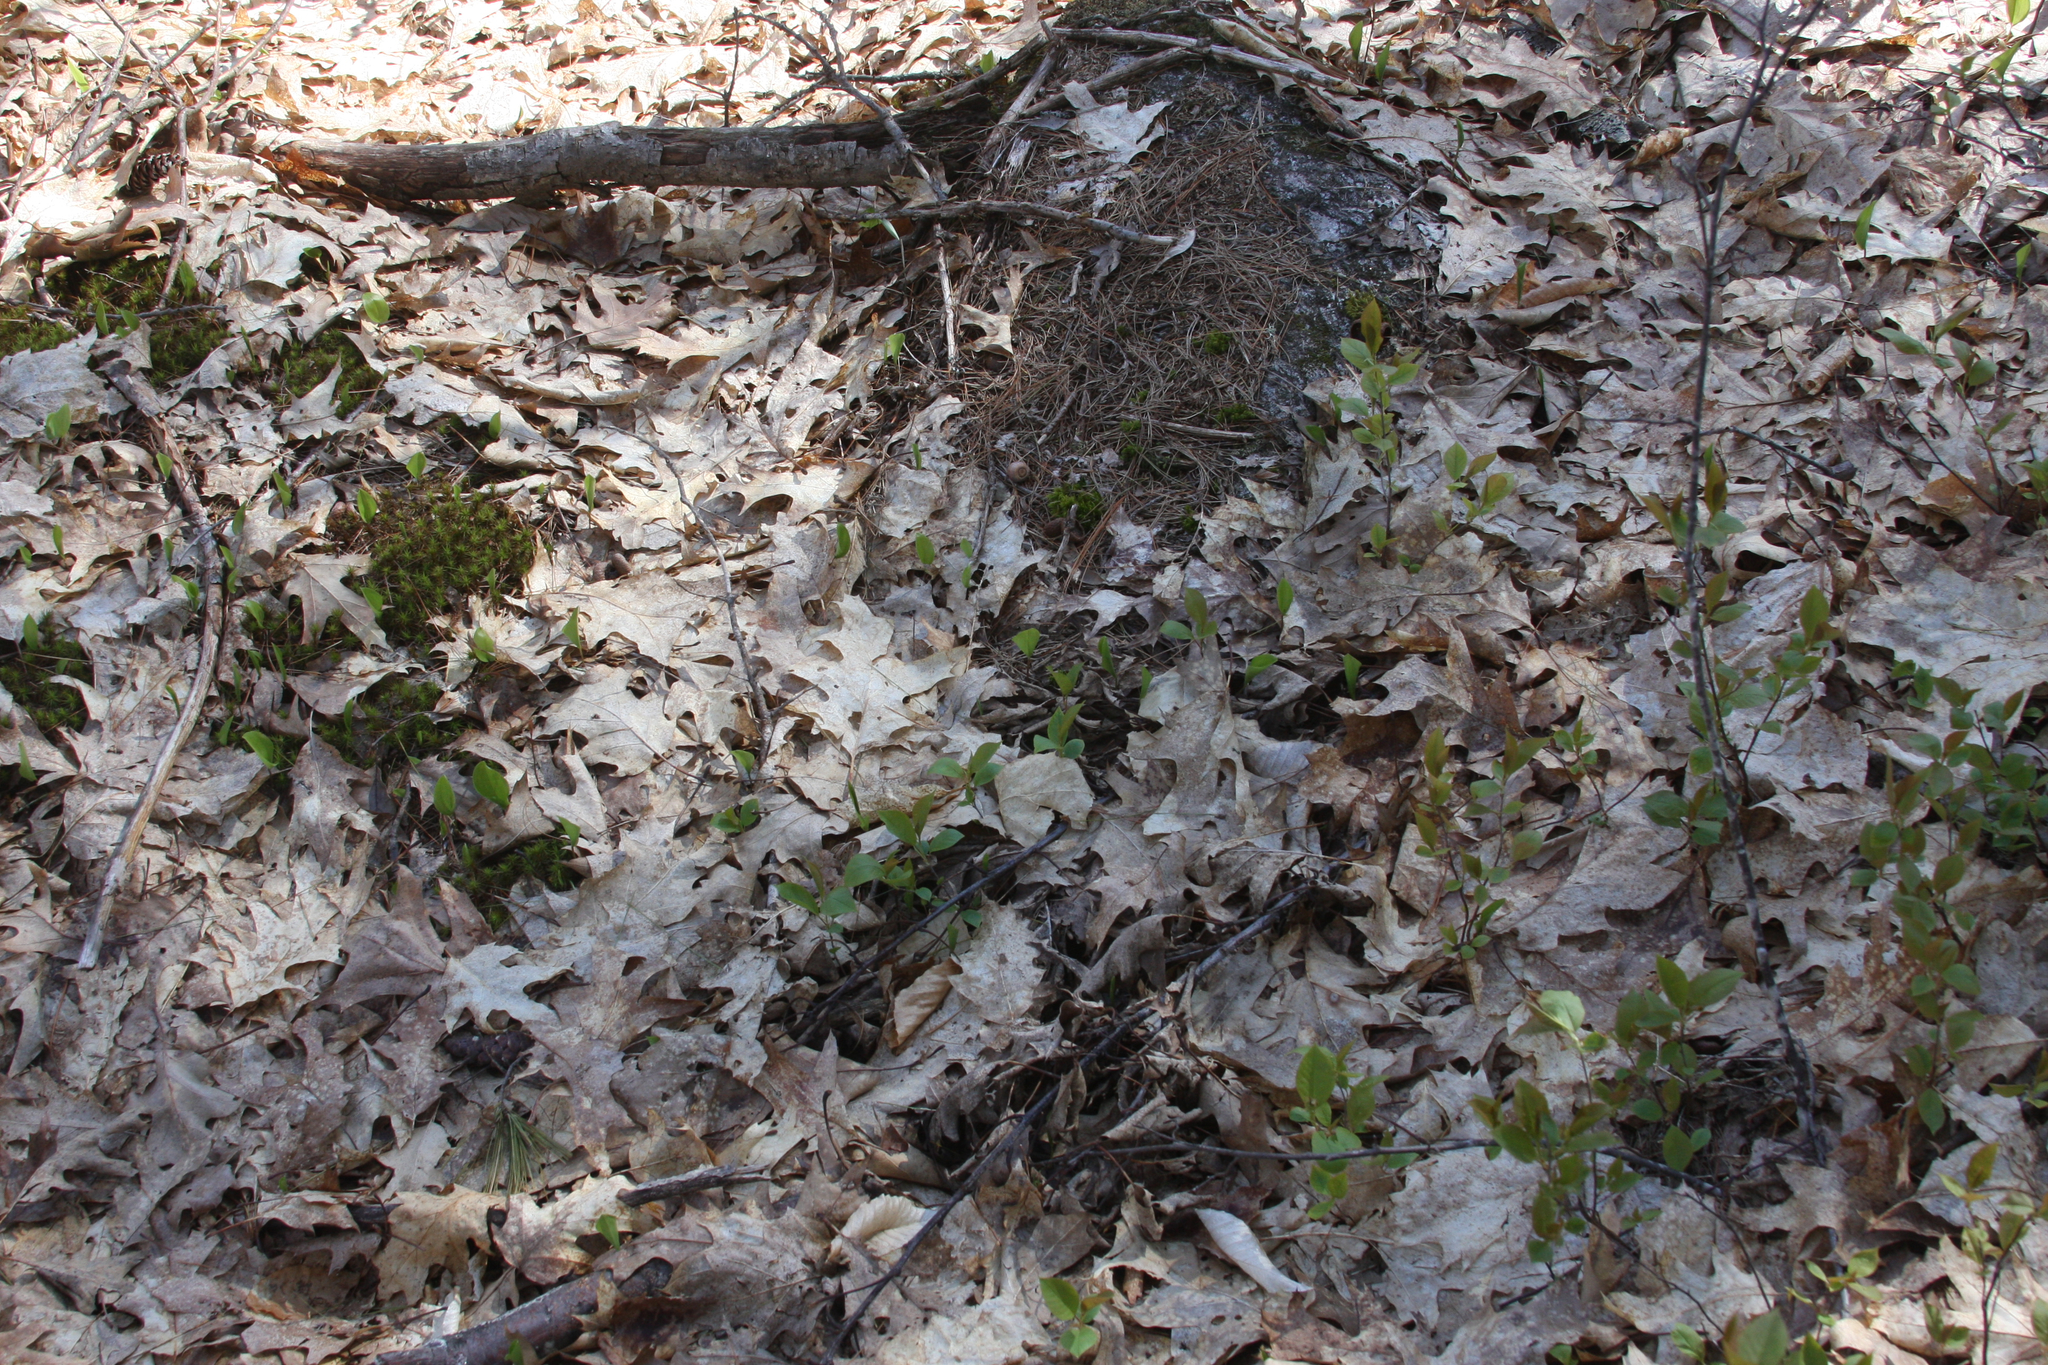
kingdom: Plantae
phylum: Tracheophyta
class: Magnoliopsida
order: Rosales
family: Rosaceae
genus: Prunus
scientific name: Prunus serotina
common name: Black cherry
